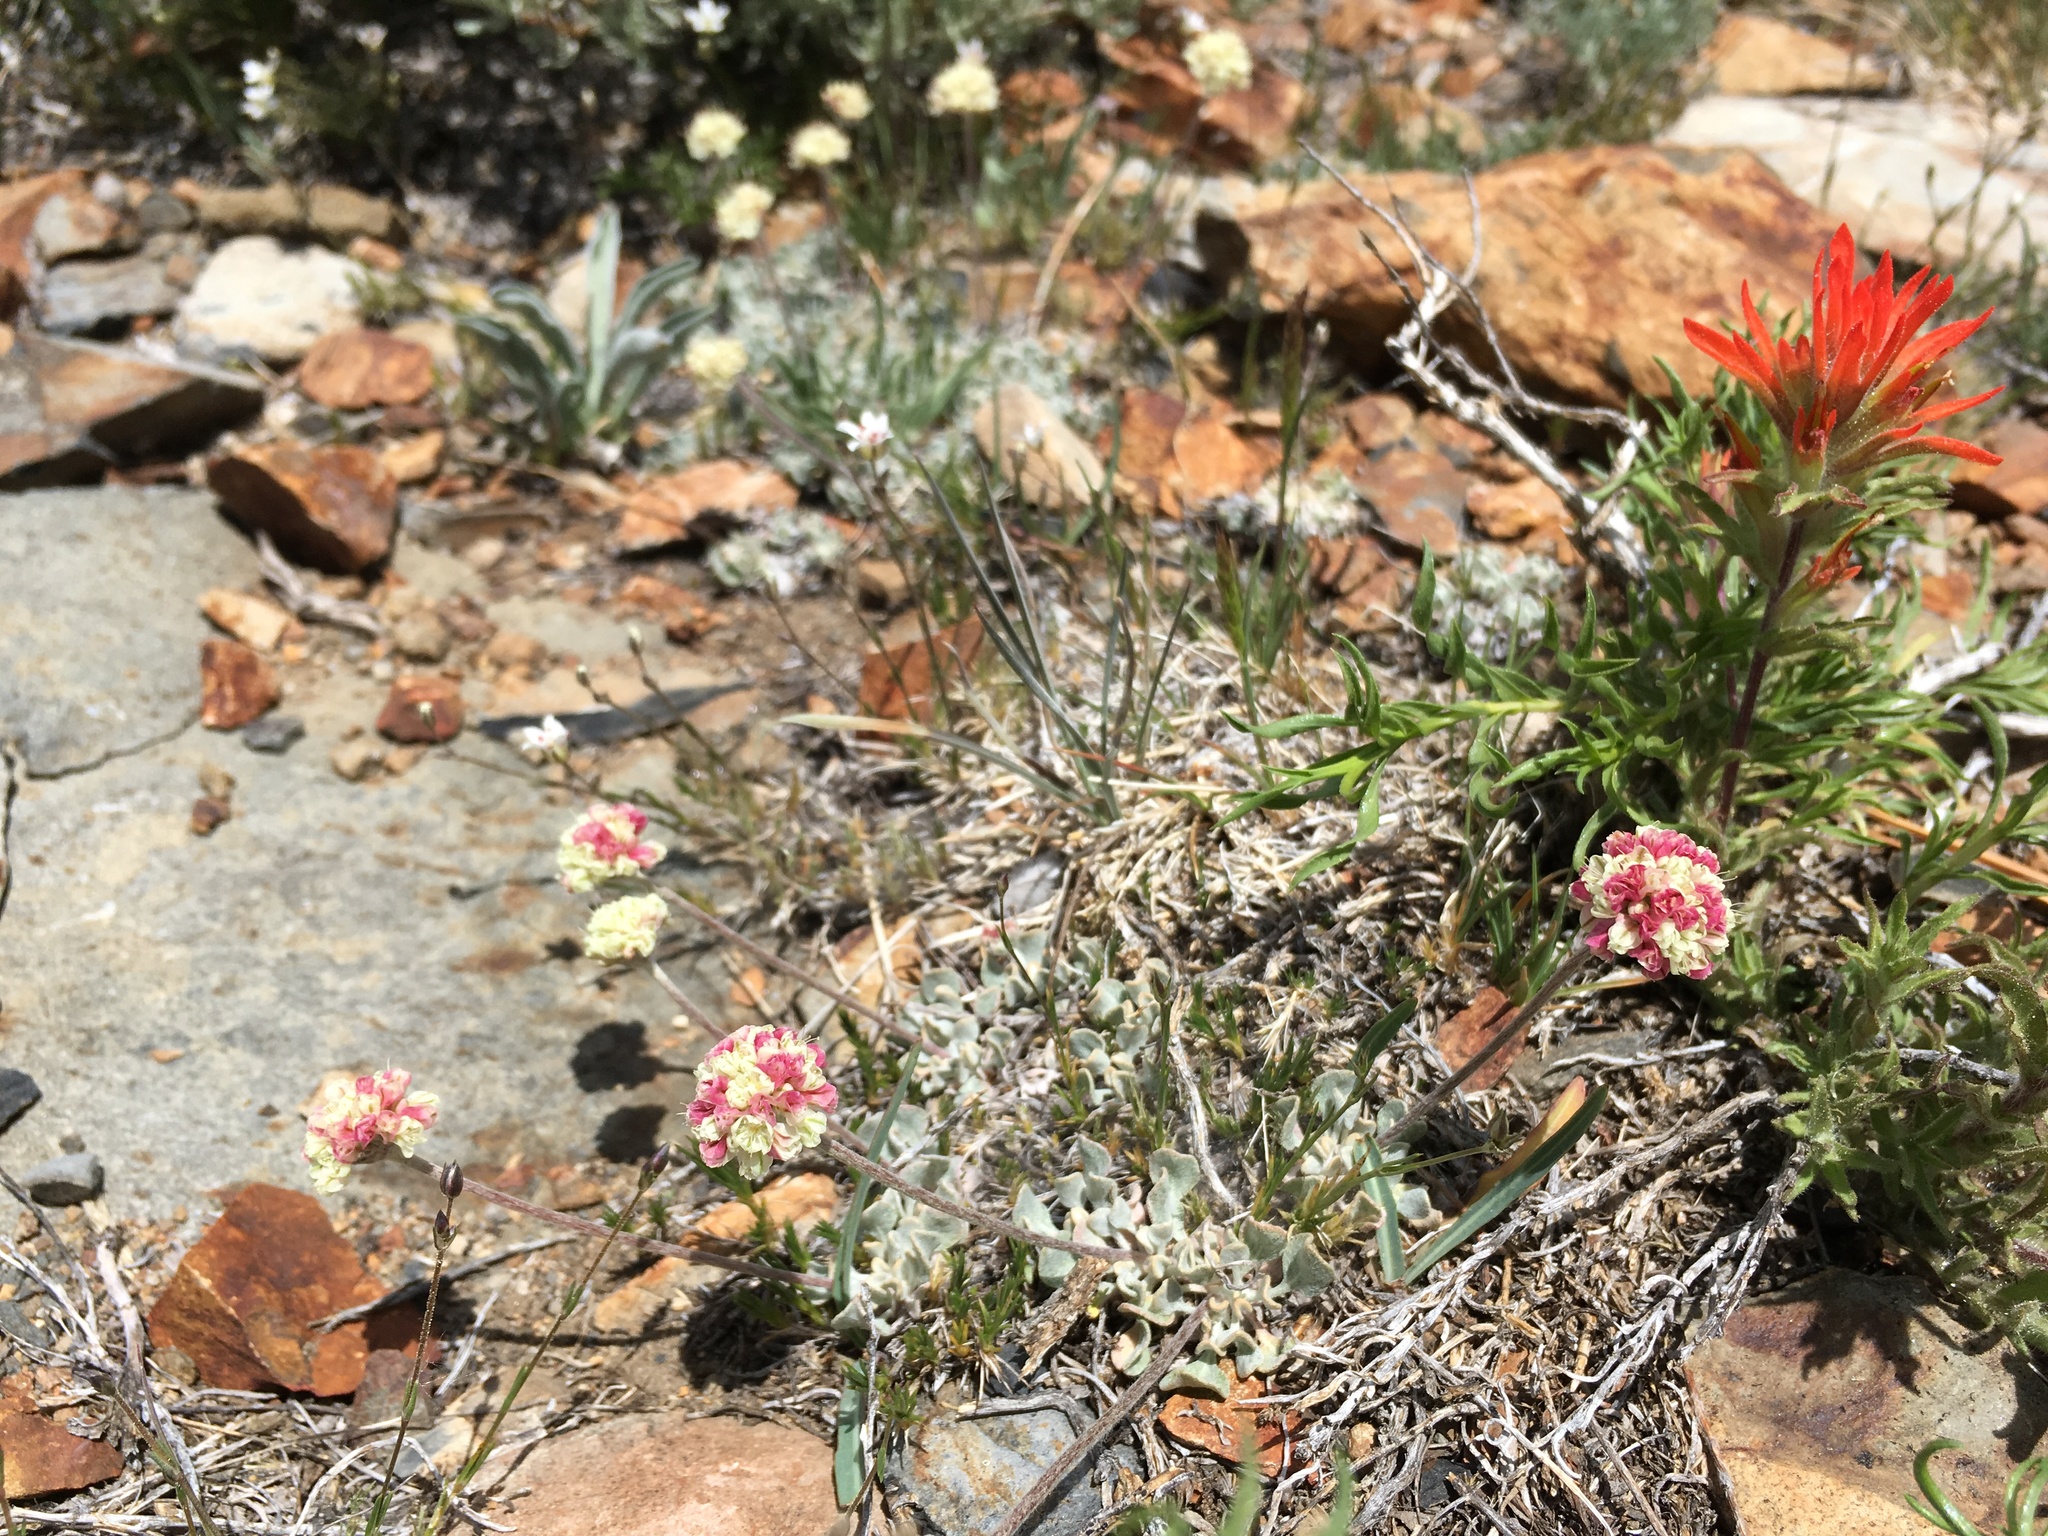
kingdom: Plantae
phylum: Tracheophyta
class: Magnoliopsida
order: Caryophyllales
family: Polygonaceae
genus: Eriogonum
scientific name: Eriogonum ovalifolium
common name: Cushion buckwheat
